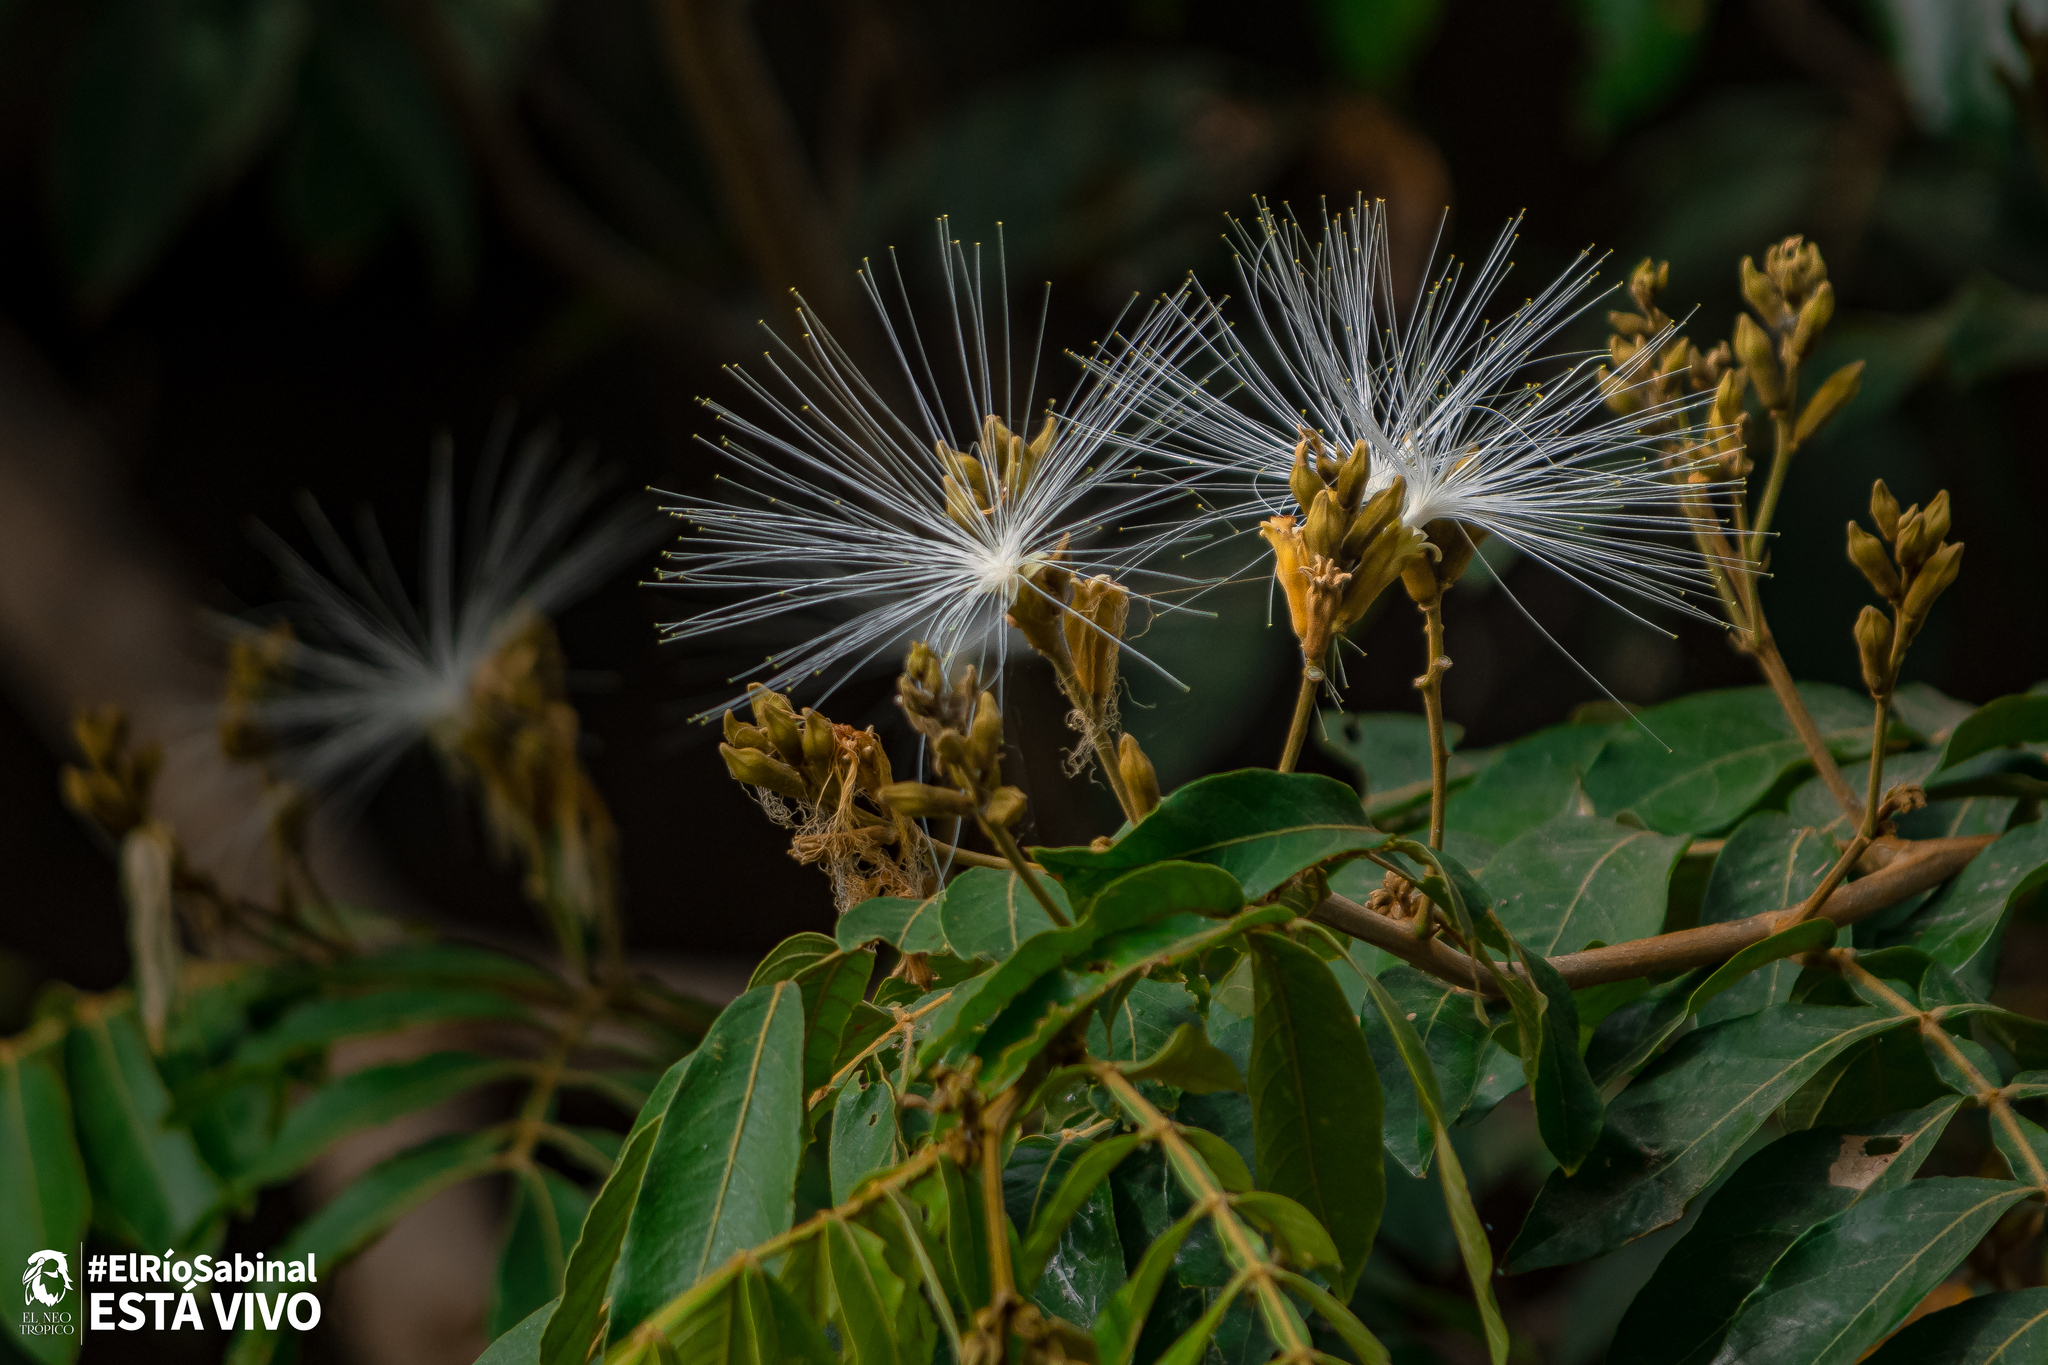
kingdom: Plantae
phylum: Tracheophyta
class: Magnoliopsida
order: Fabales
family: Fabaceae
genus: Inga
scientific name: Inga vera
